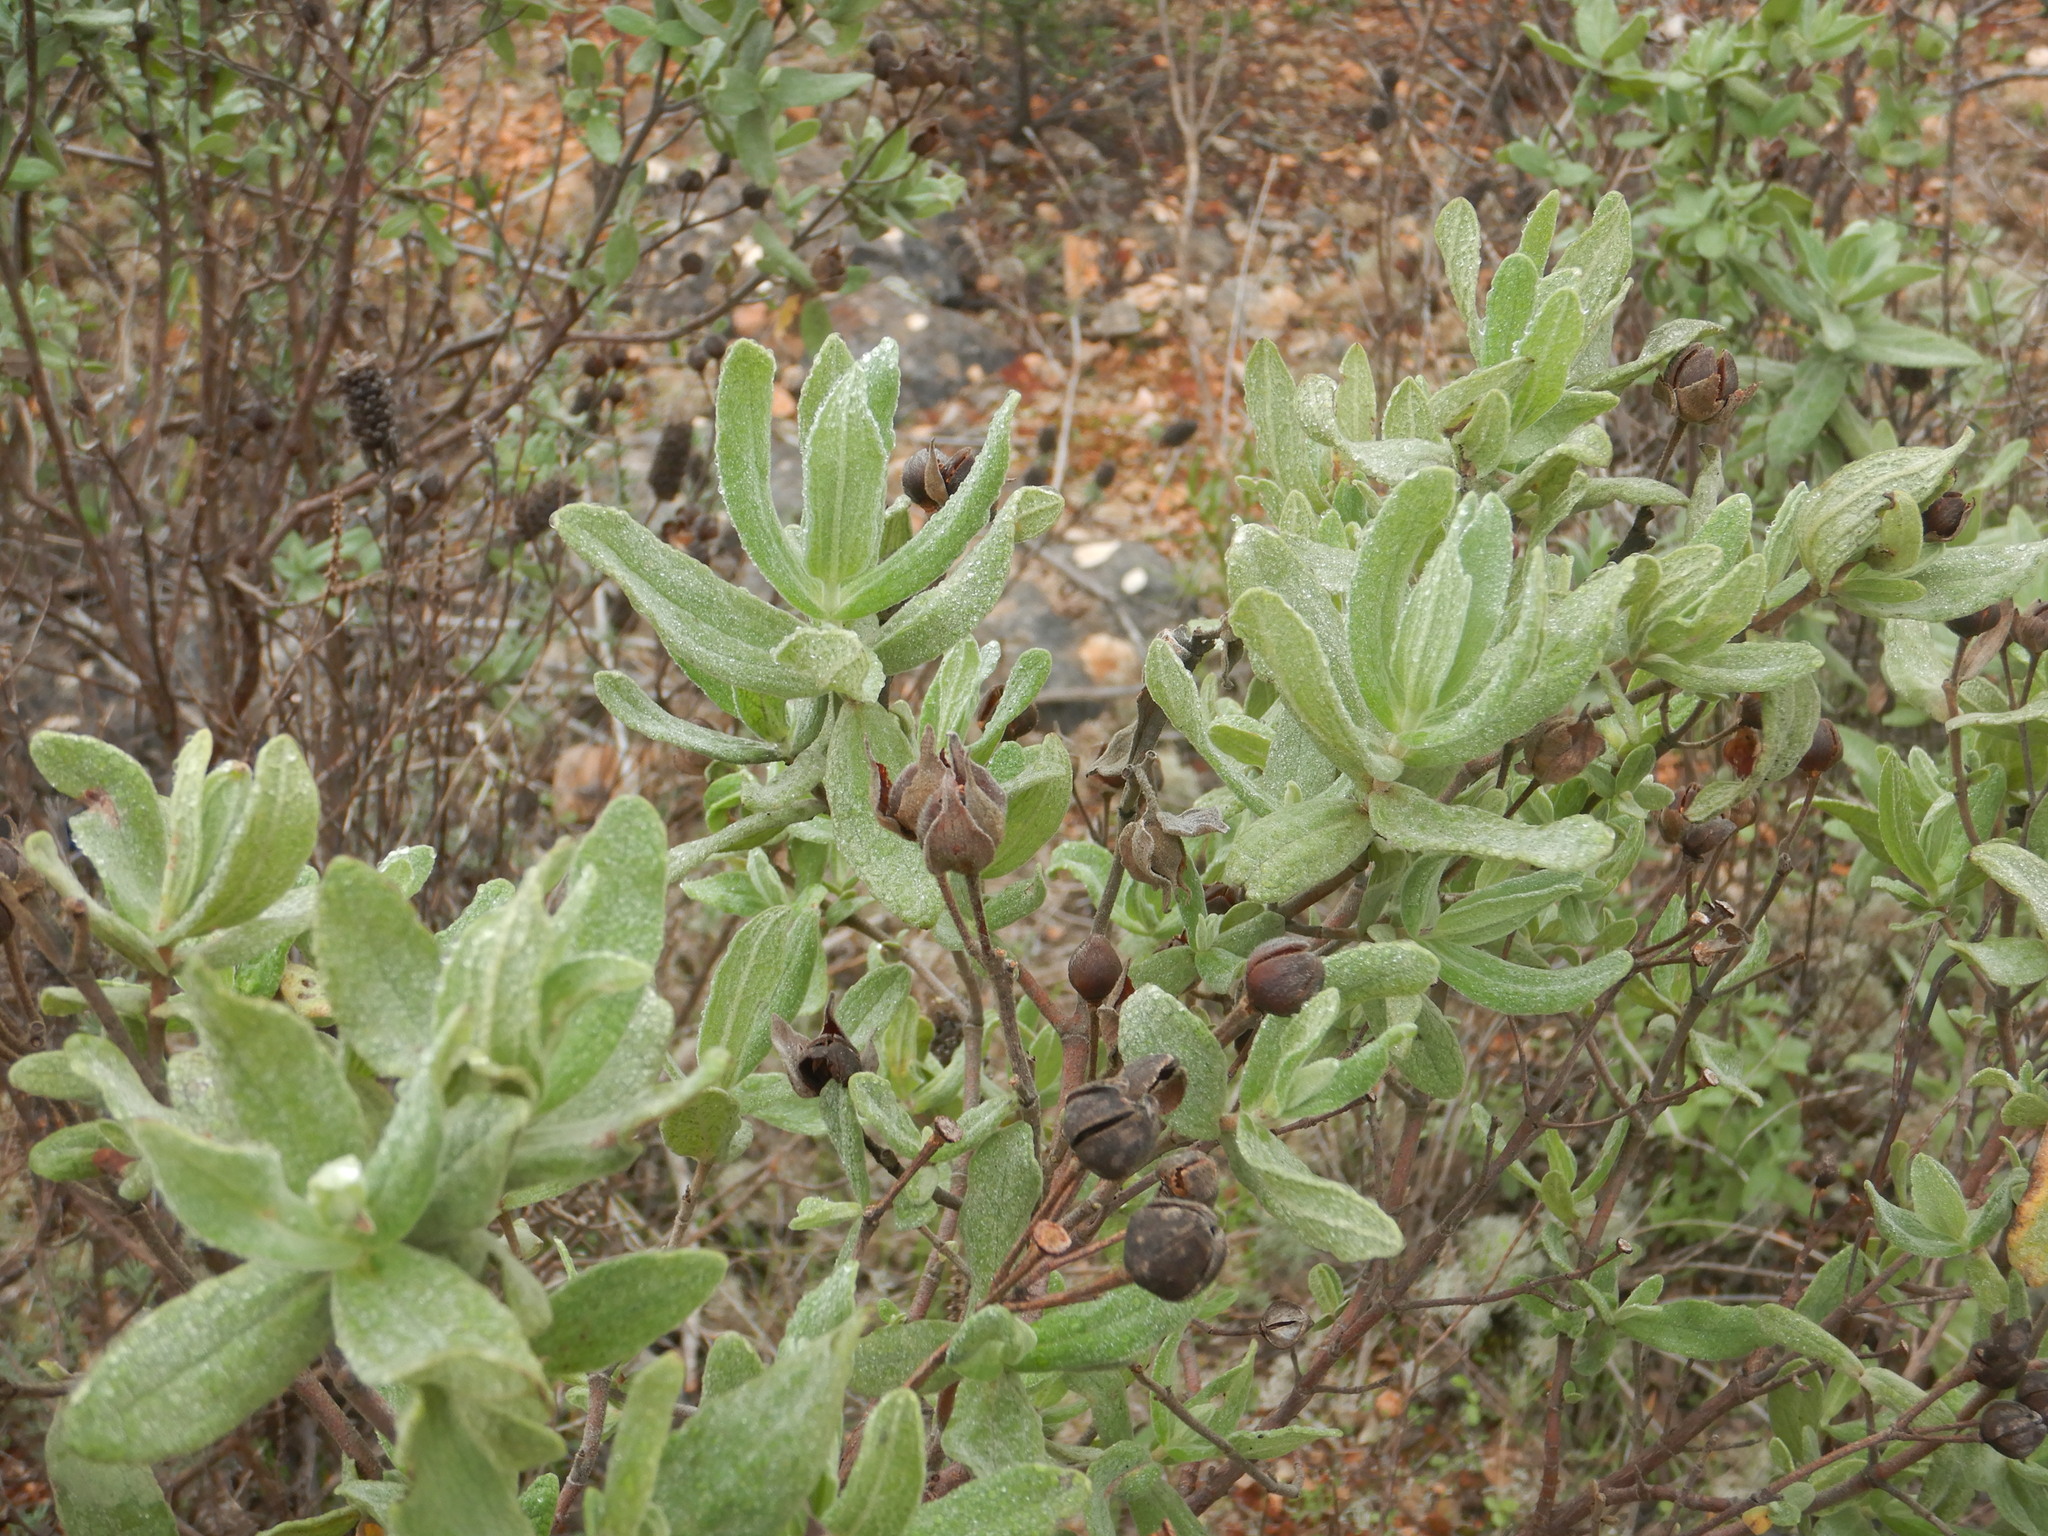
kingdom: Plantae
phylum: Tracheophyta
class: Magnoliopsida
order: Malvales
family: Cistaceae
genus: Cistus
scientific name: Cistus albidus
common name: White-leaf rock-rose
